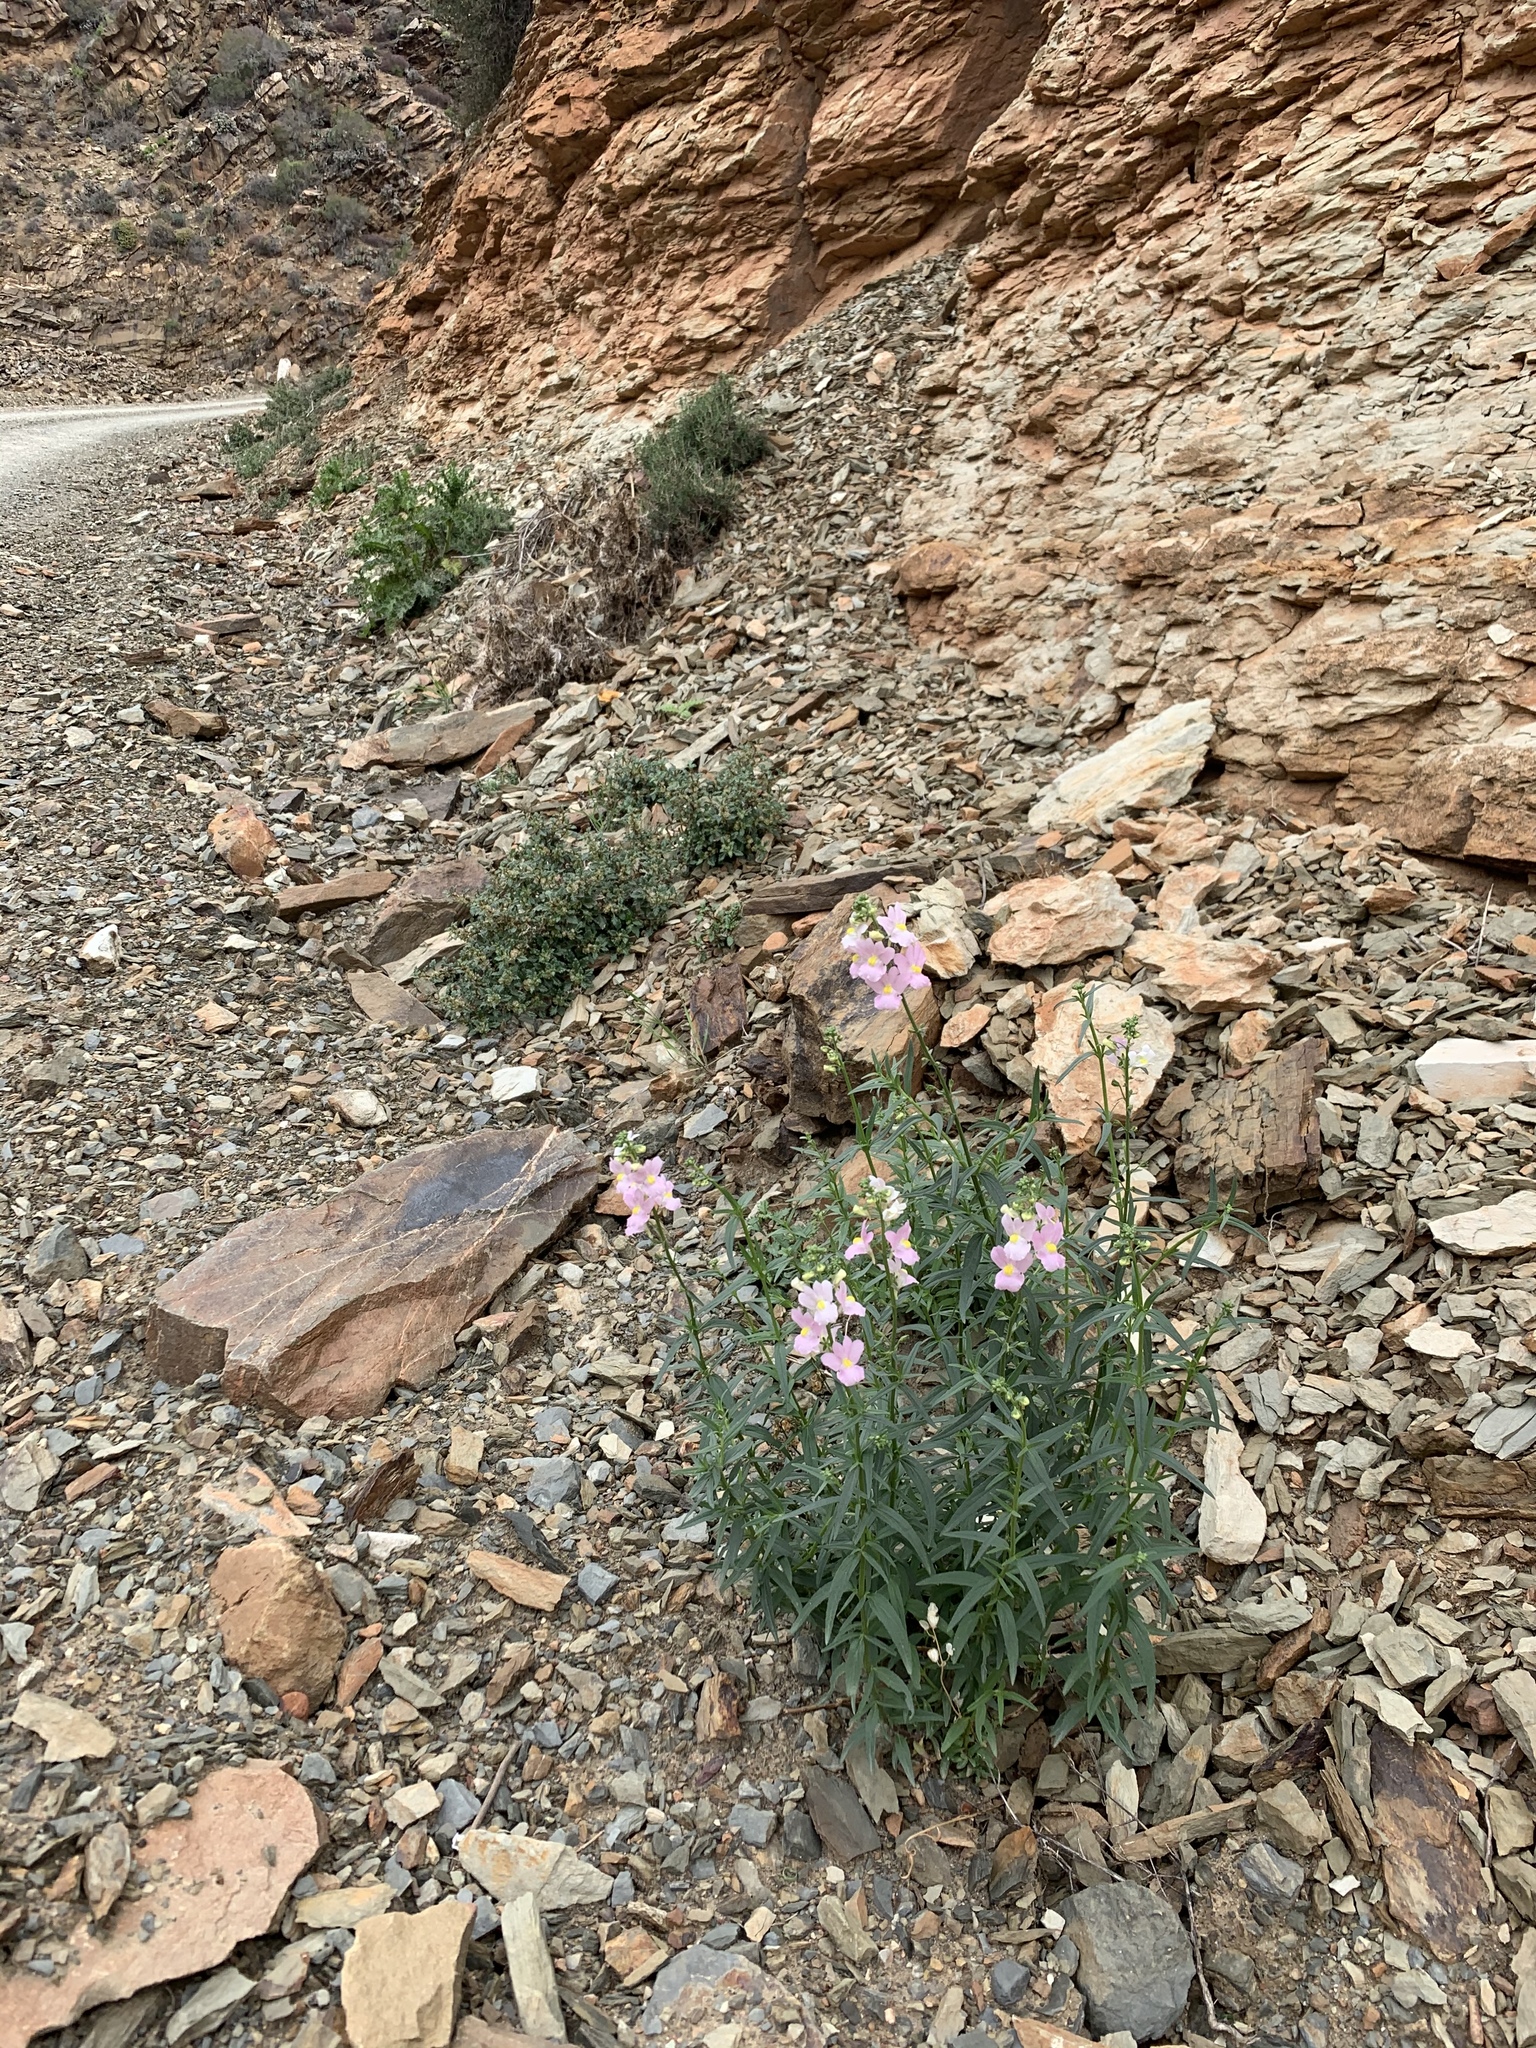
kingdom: Plantae
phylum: Tracheophyta
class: Magnoliopsida
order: Lamiales
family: Scrophulariaceae
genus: Nemesia
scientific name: Nemesia fruticans
